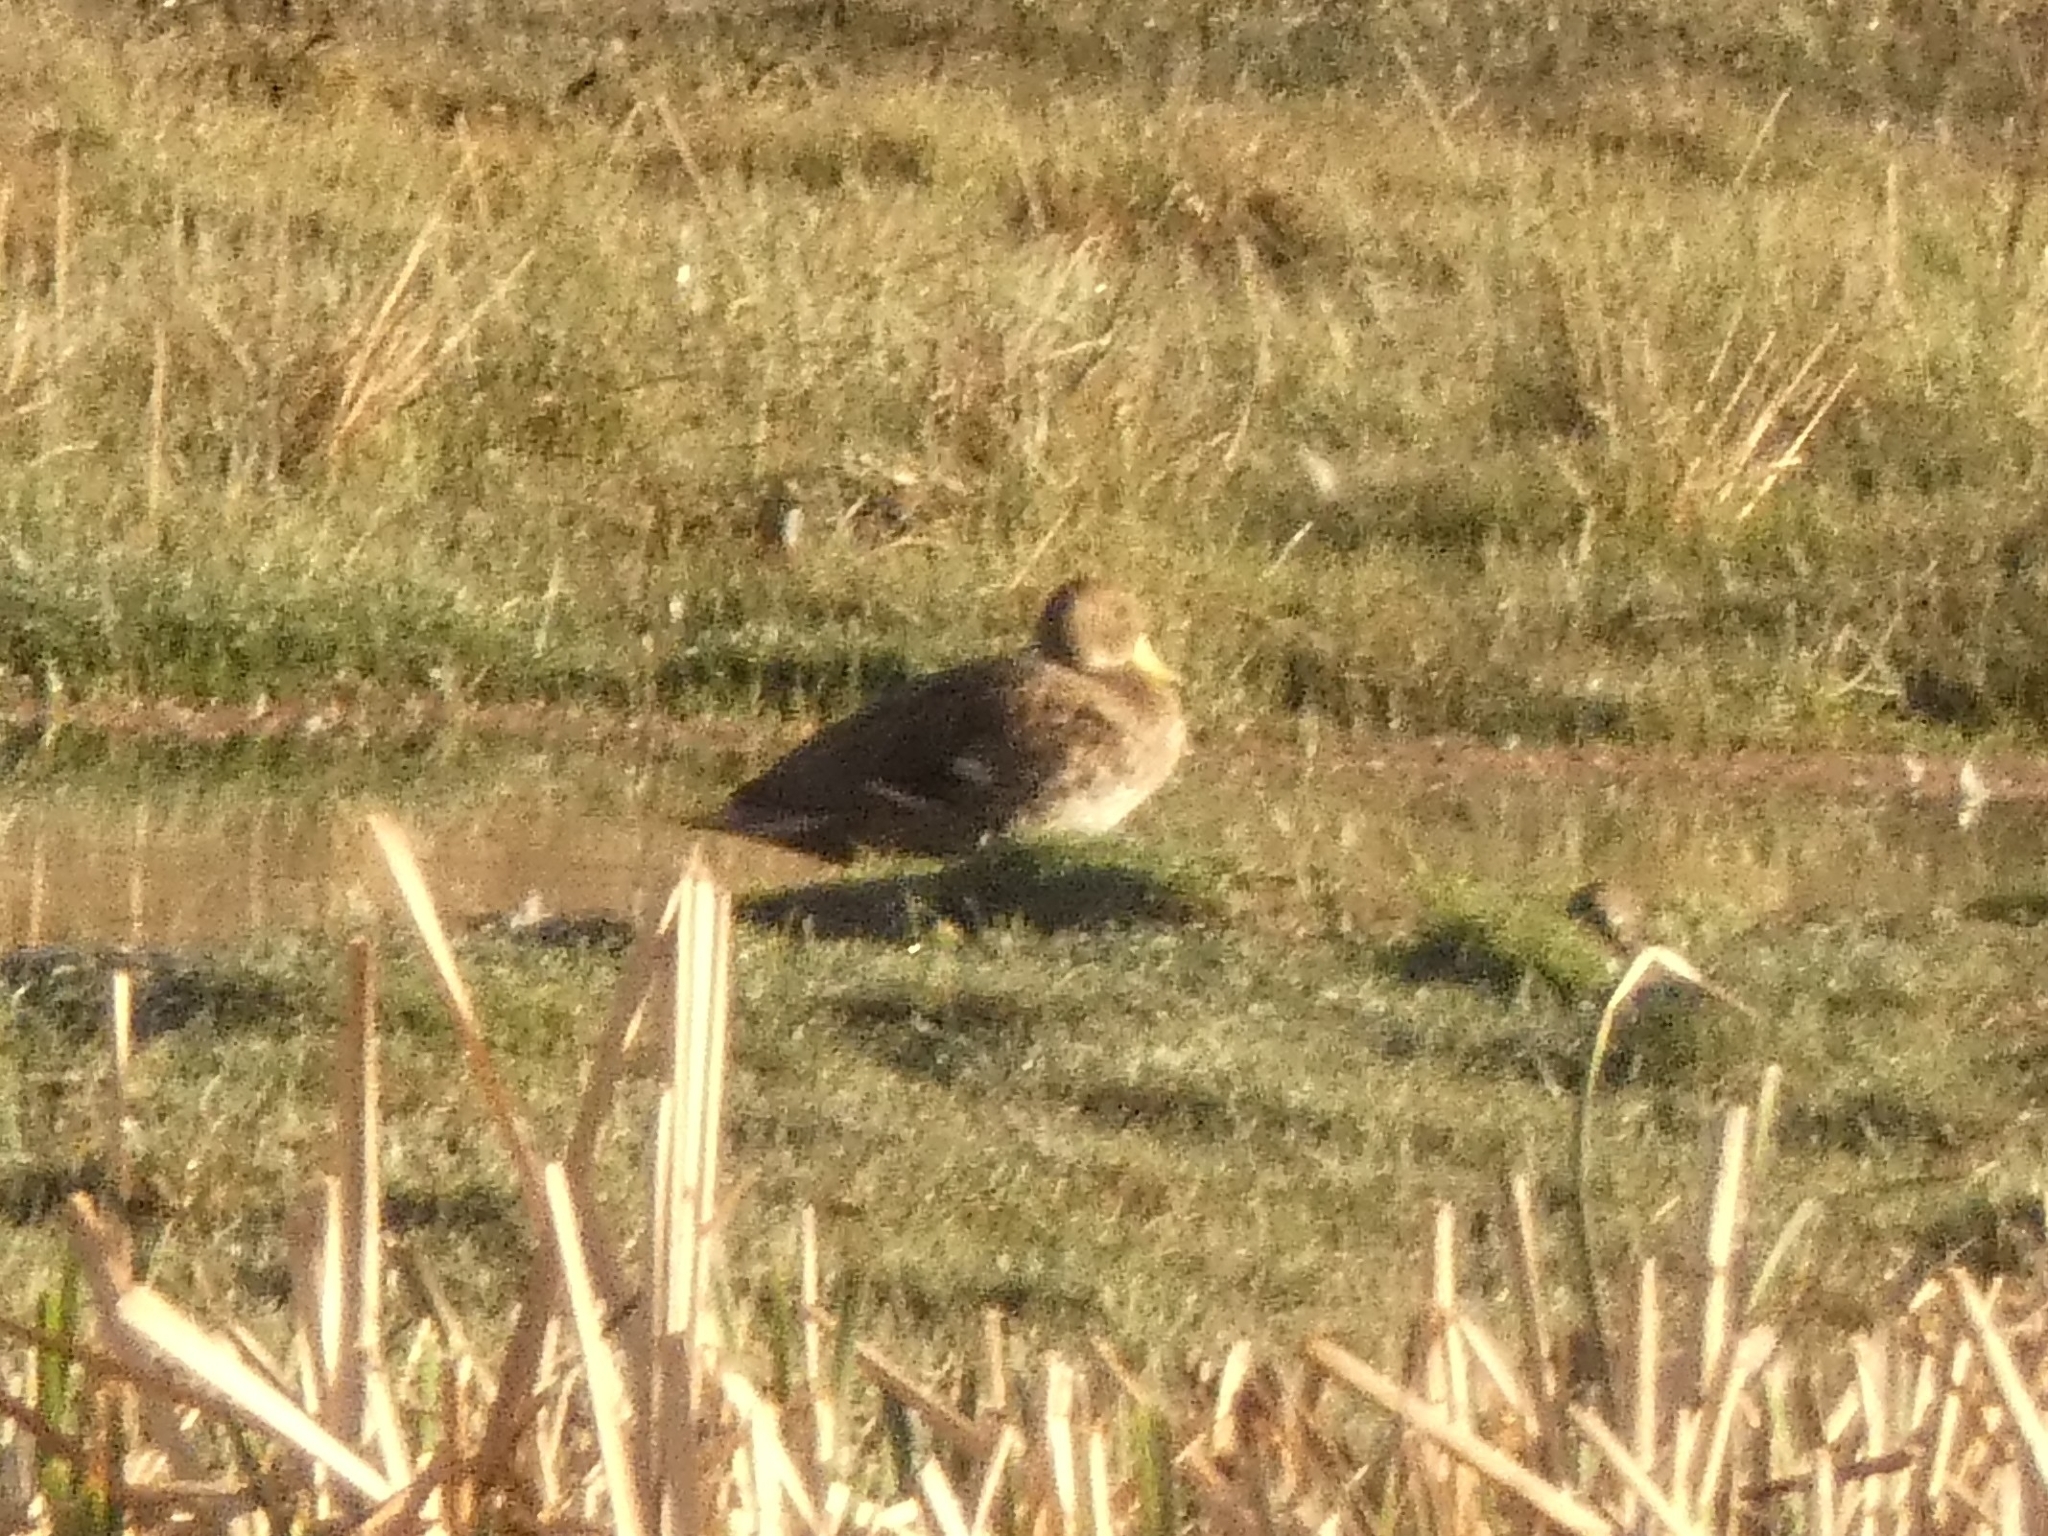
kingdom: Animalia
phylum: Chordata
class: Aves
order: Anseriformes
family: Anatidae
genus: Anas
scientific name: Anas georgica
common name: Yellow-billed pintail
